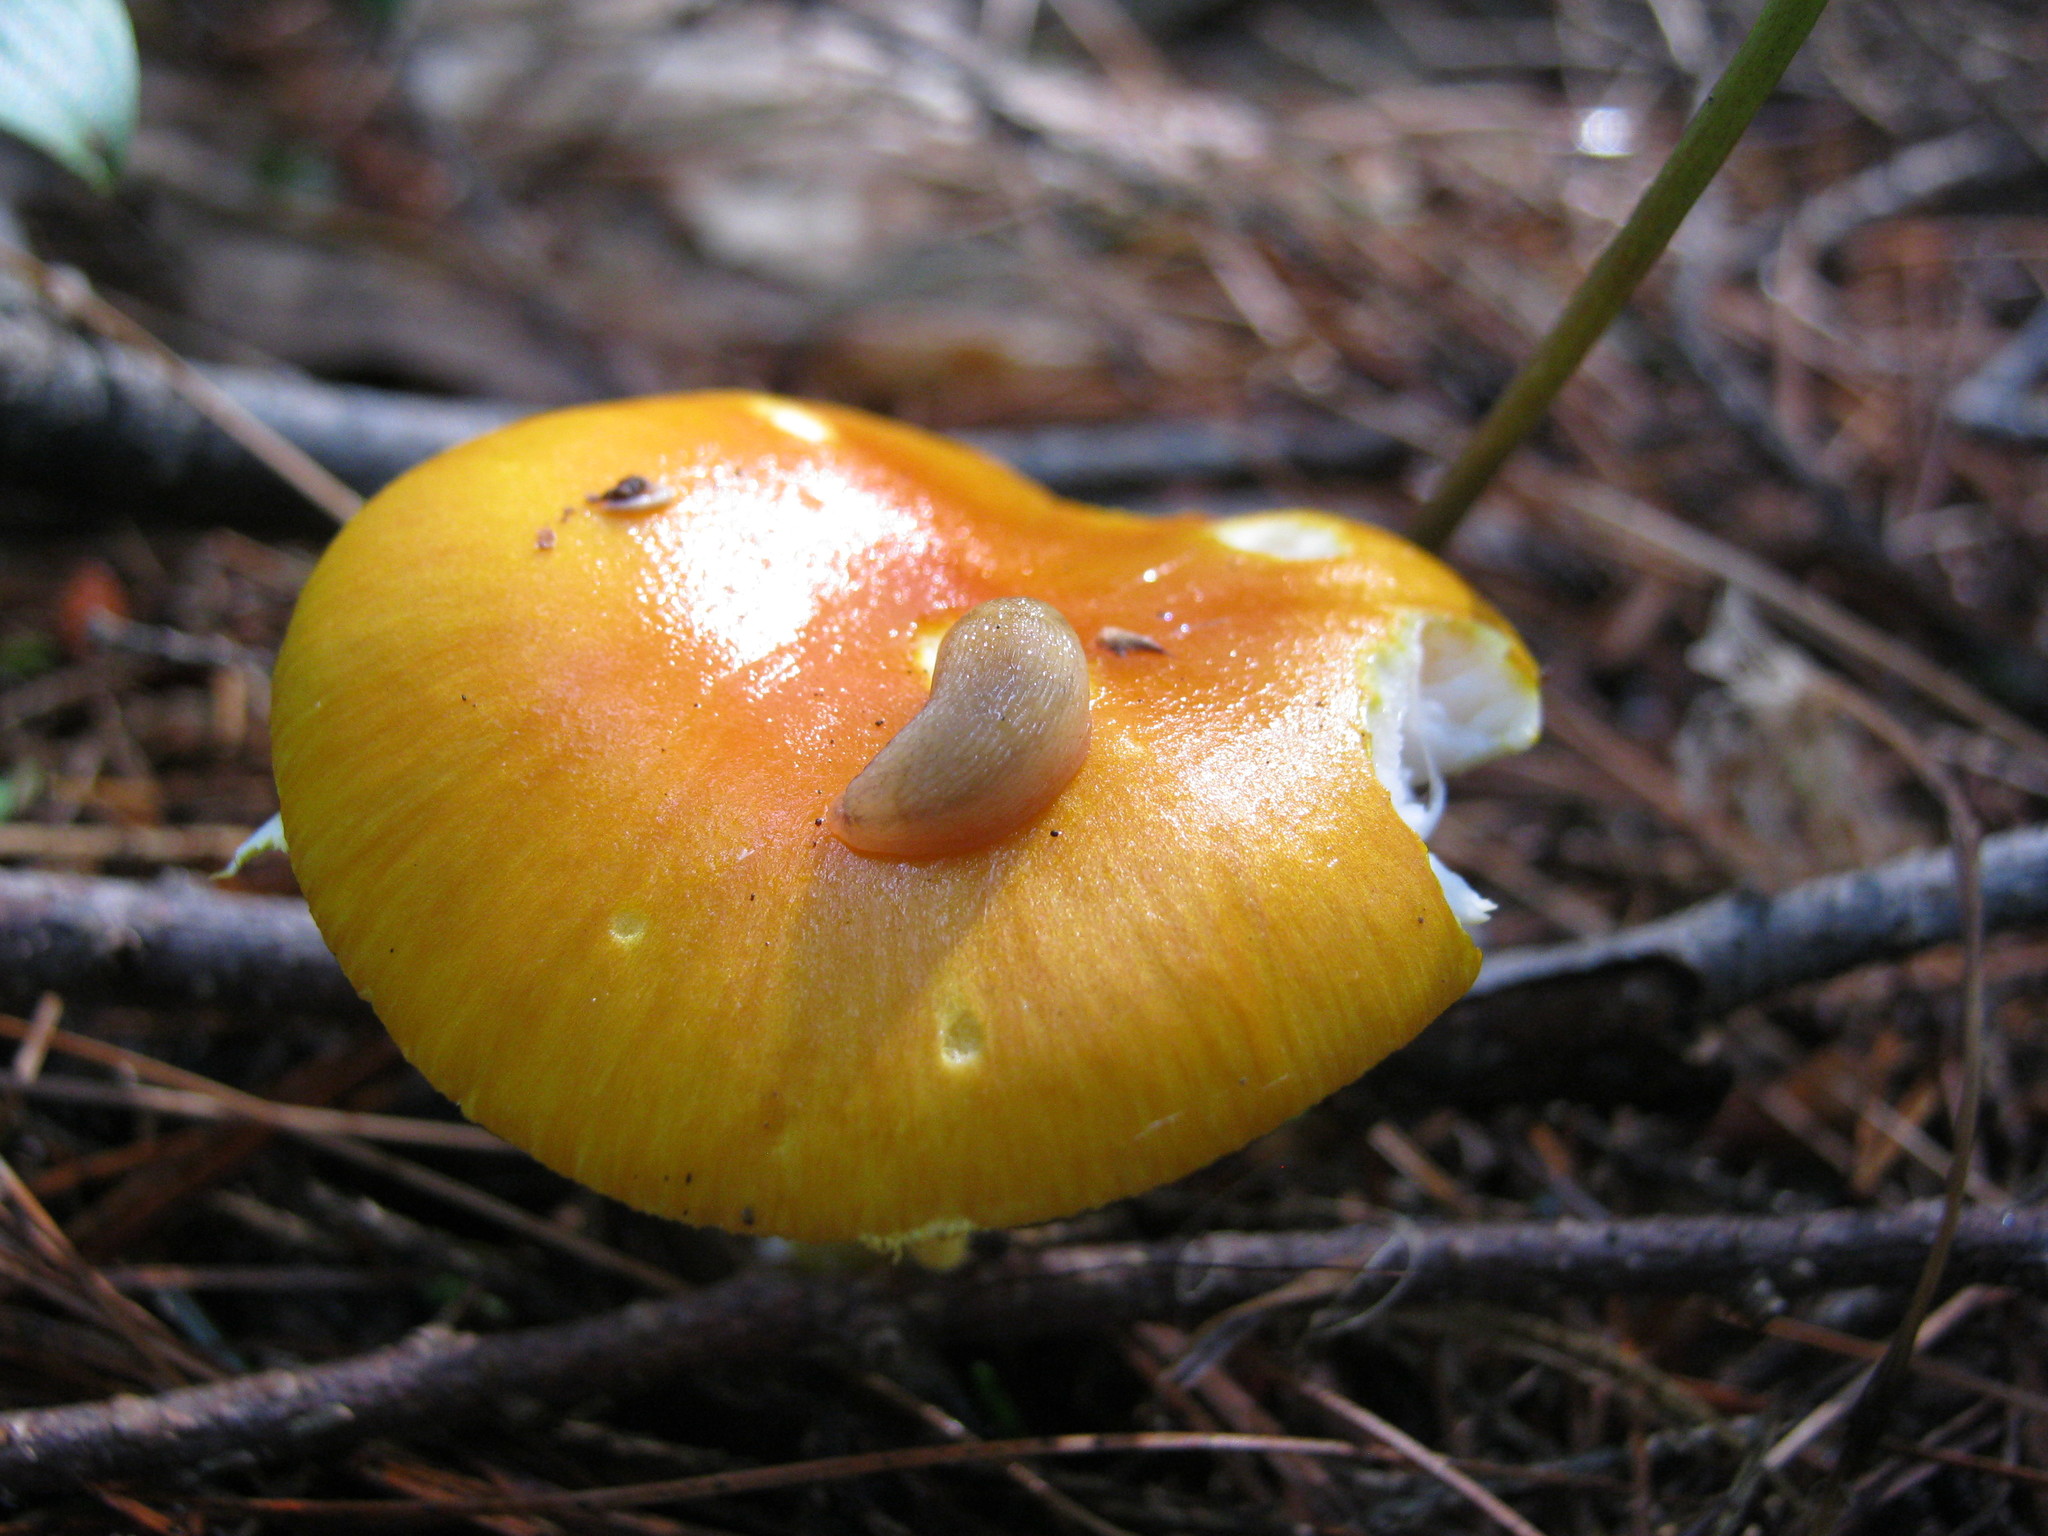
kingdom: Fungi
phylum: Basidiomycota
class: Agaricomycetes
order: Agaricales
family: Amanitaceae
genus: Amanita
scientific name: Amanita flavoconia
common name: Yellow patches
